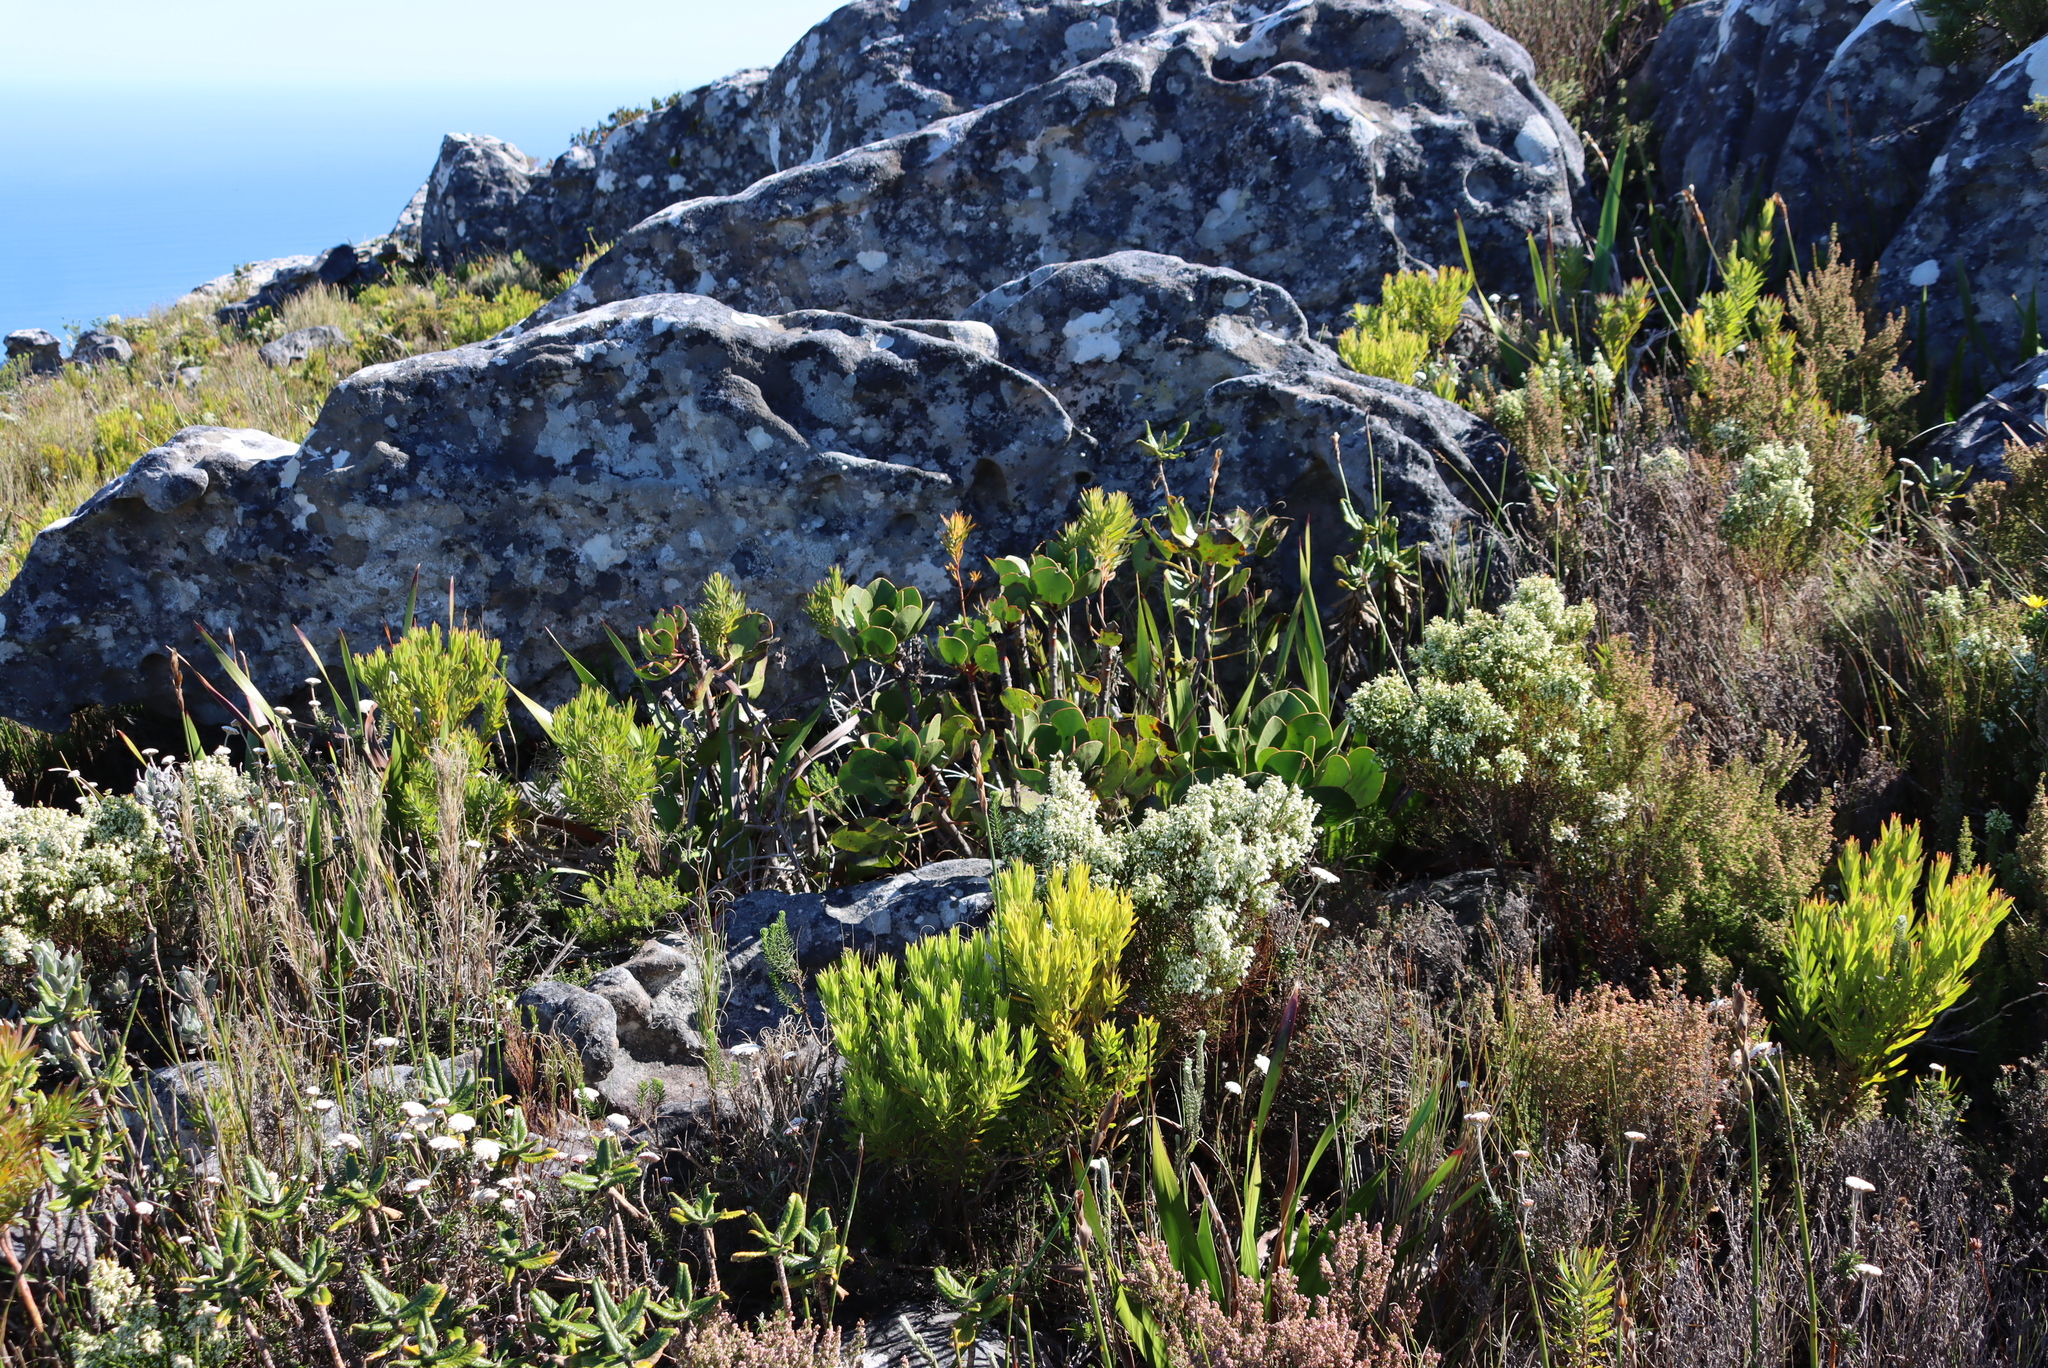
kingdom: Plantae
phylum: Tracheophyta
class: Magnoliopsida
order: Proteales
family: Proteaceae
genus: Protea
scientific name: Protea cynaroides
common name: King protea
